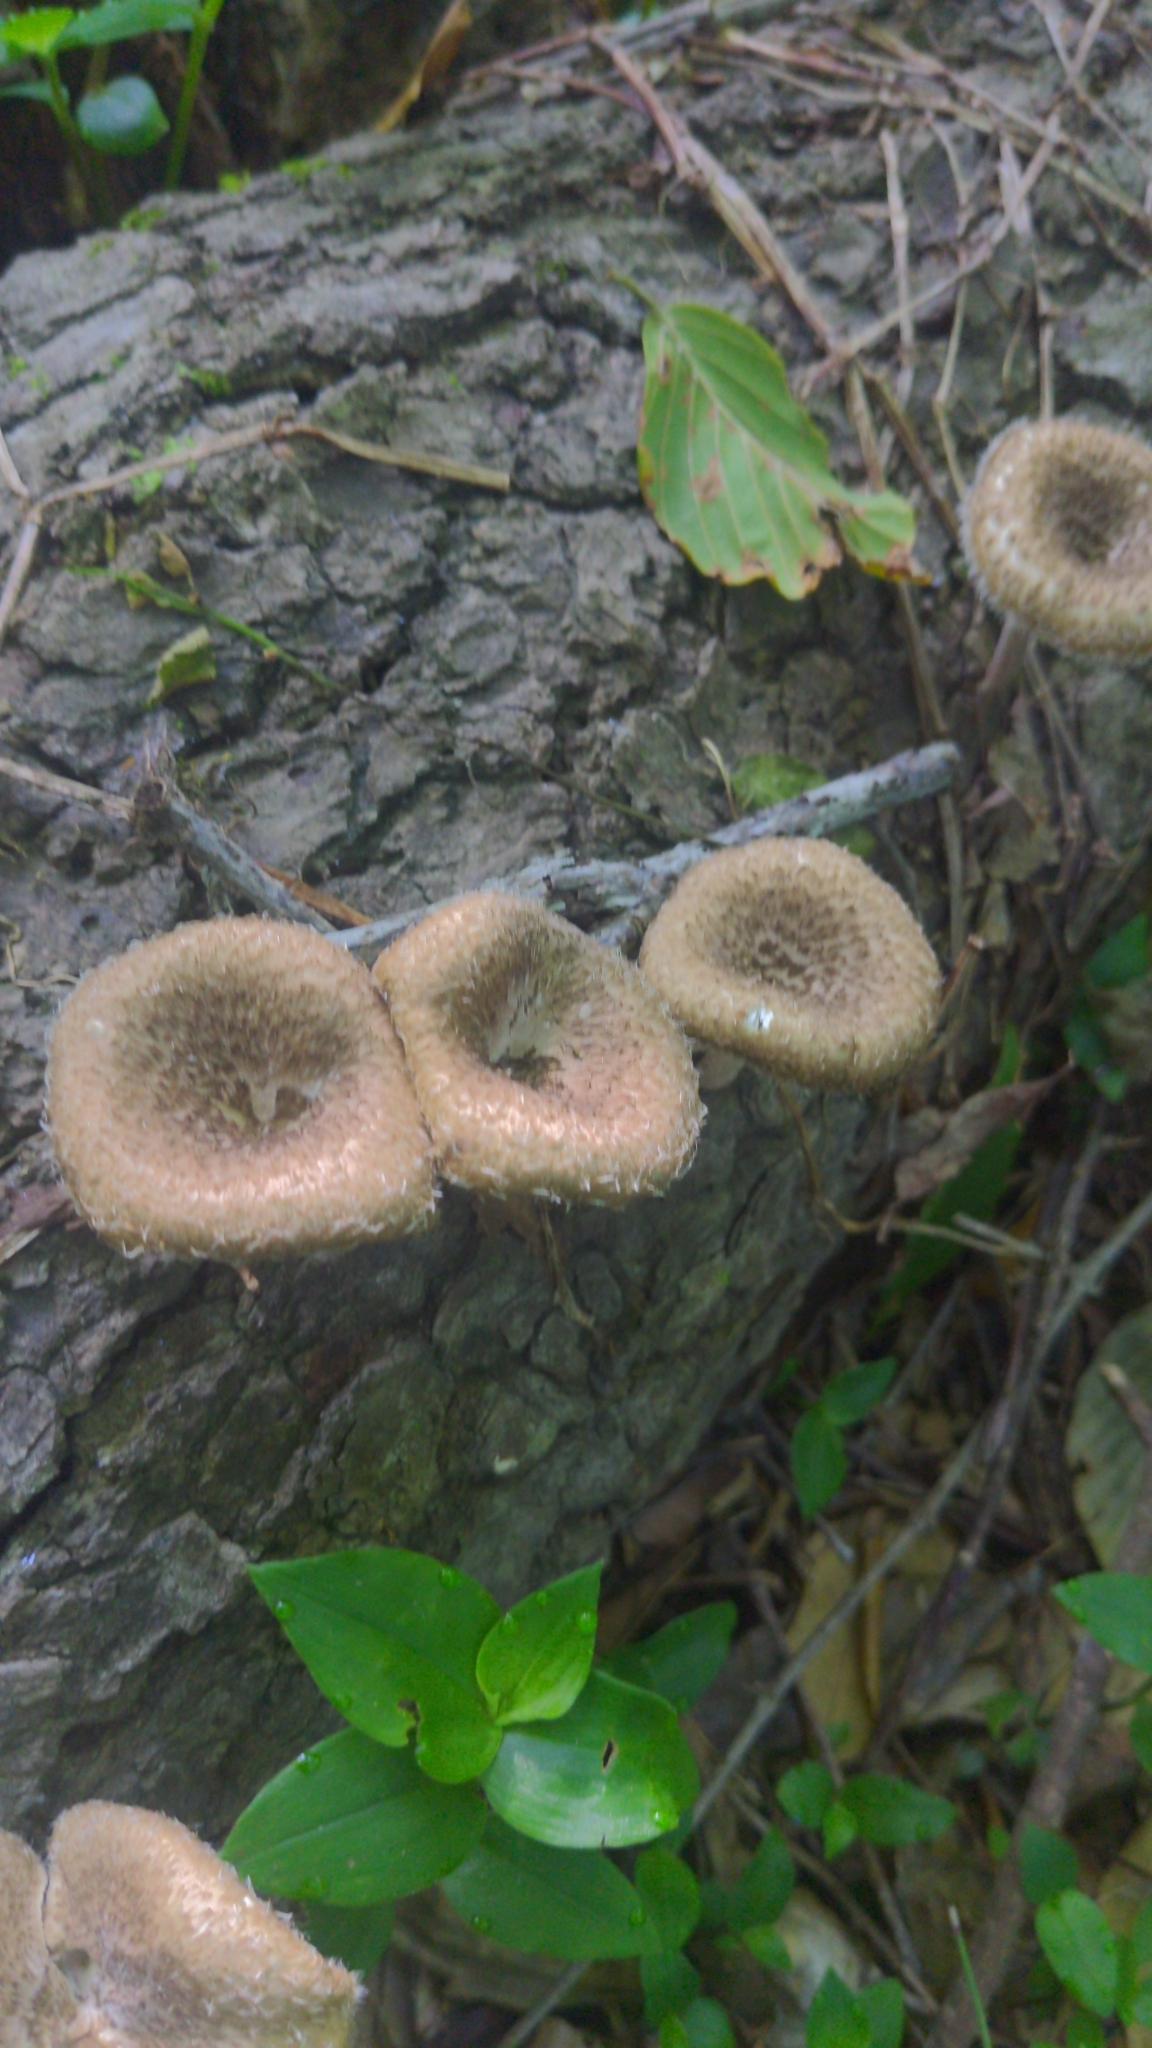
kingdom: Fungi
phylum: Basidiomycota
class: Agaricomycetes
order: Polyporales
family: Polyporaceae
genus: Lentinus
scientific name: Lentinus crinitus
